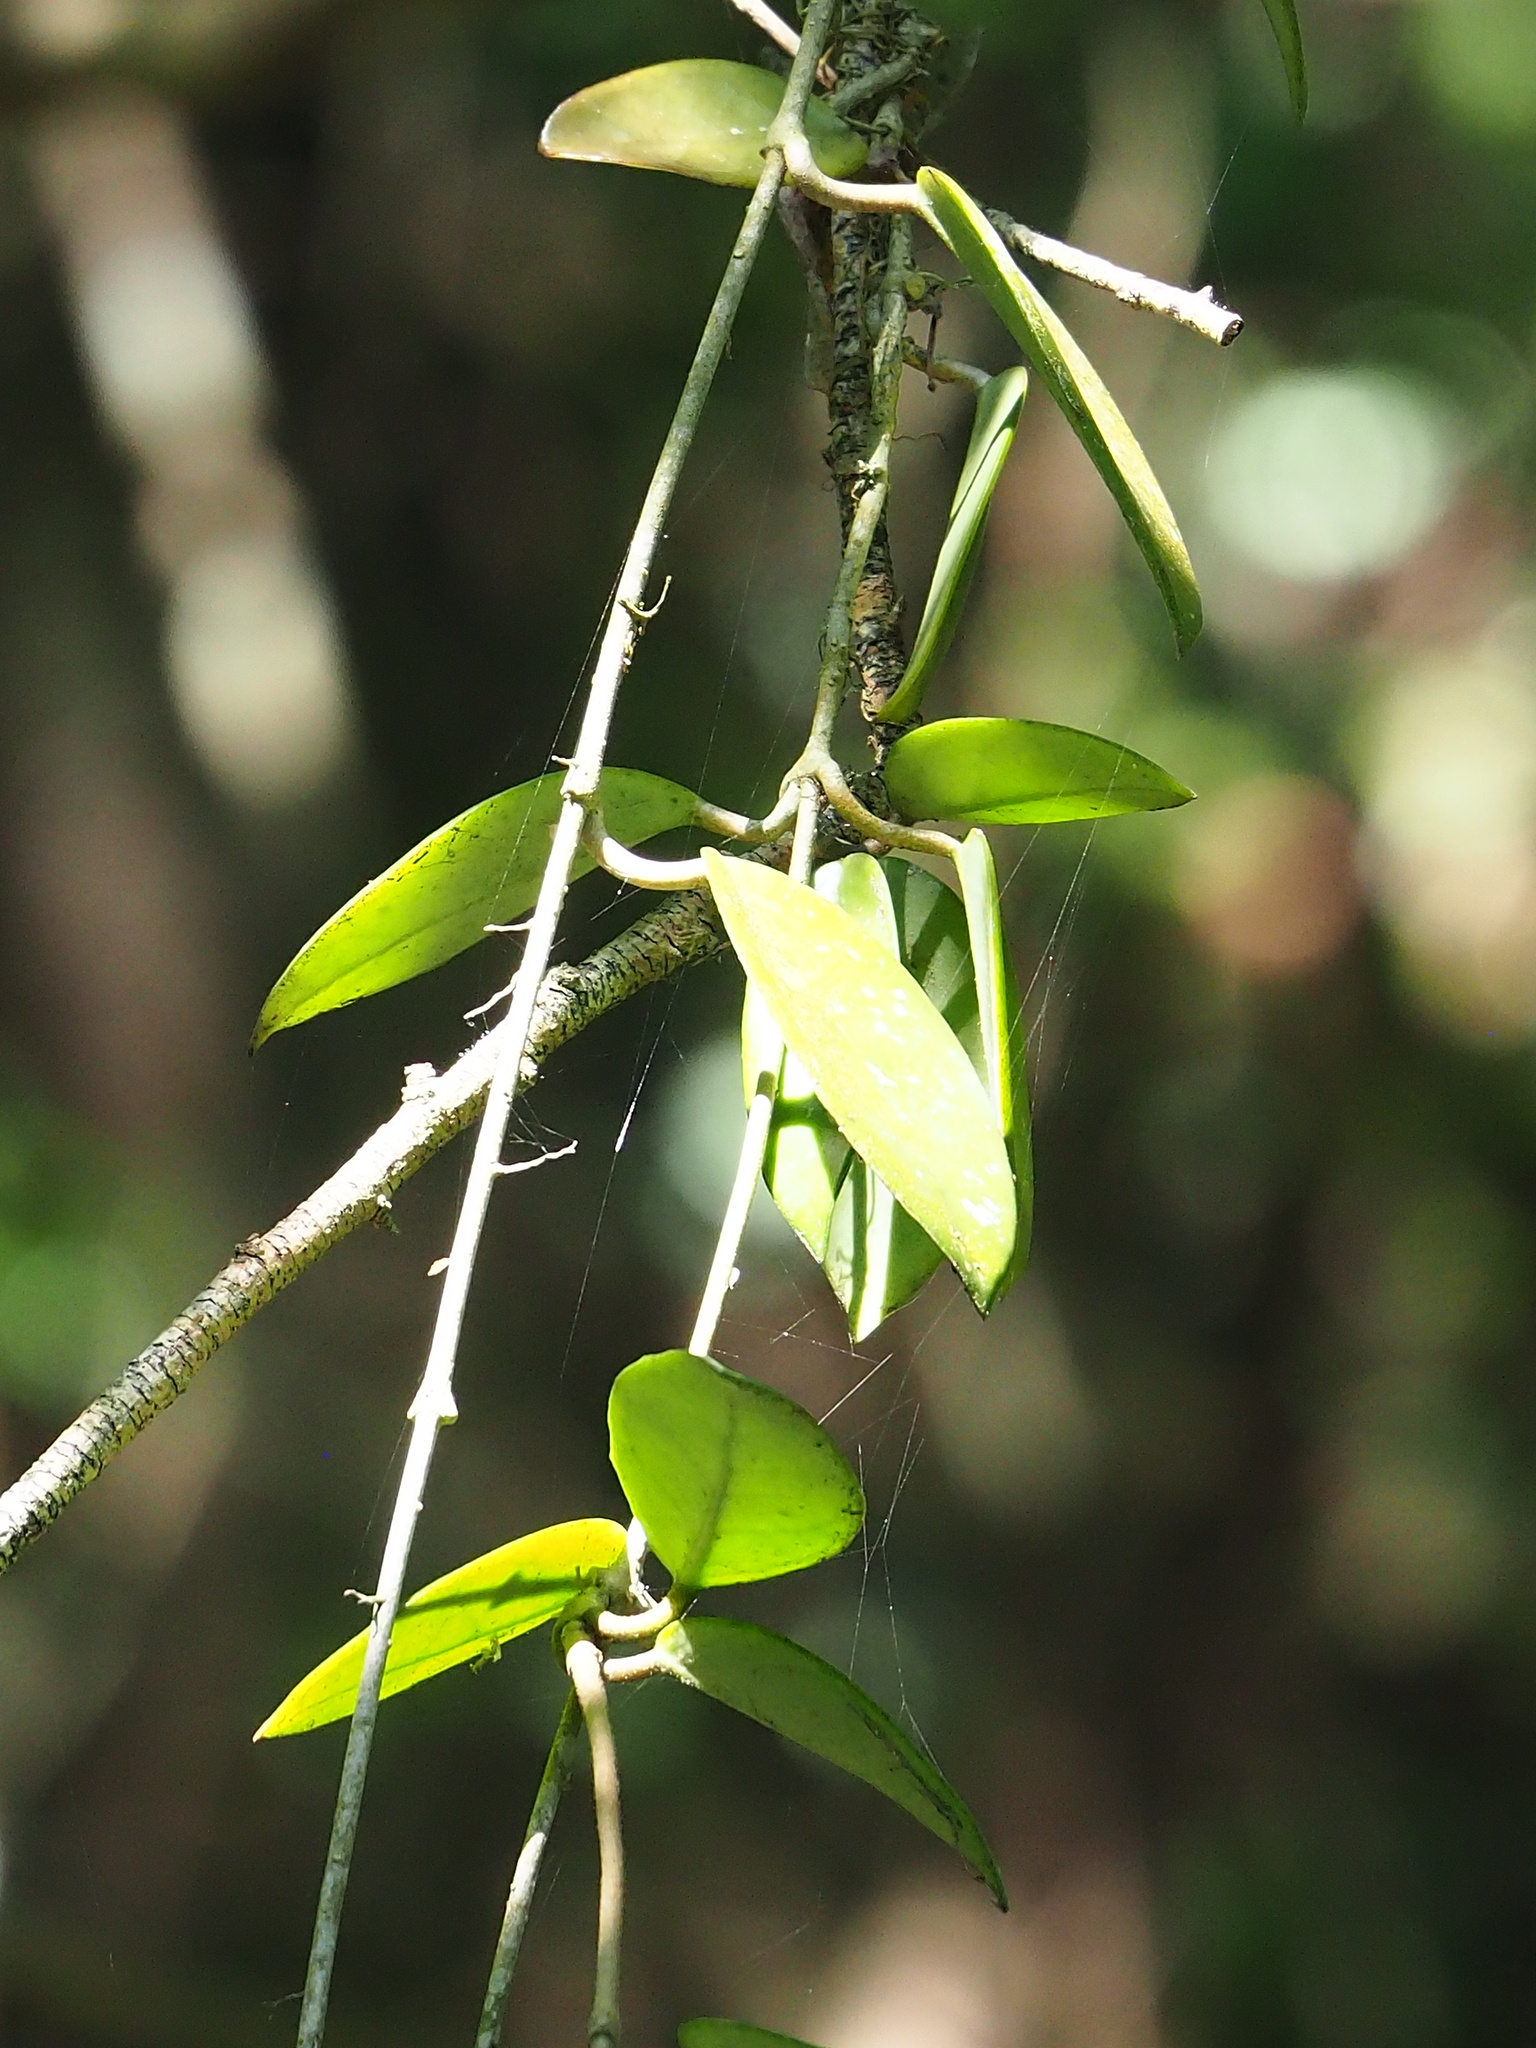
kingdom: Plantae
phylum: Tracheophyta
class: Magnoliopsida
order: Gentianales
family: Apocynaceae
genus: Hoya
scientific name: Hoya carnosa
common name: Honeyplant
